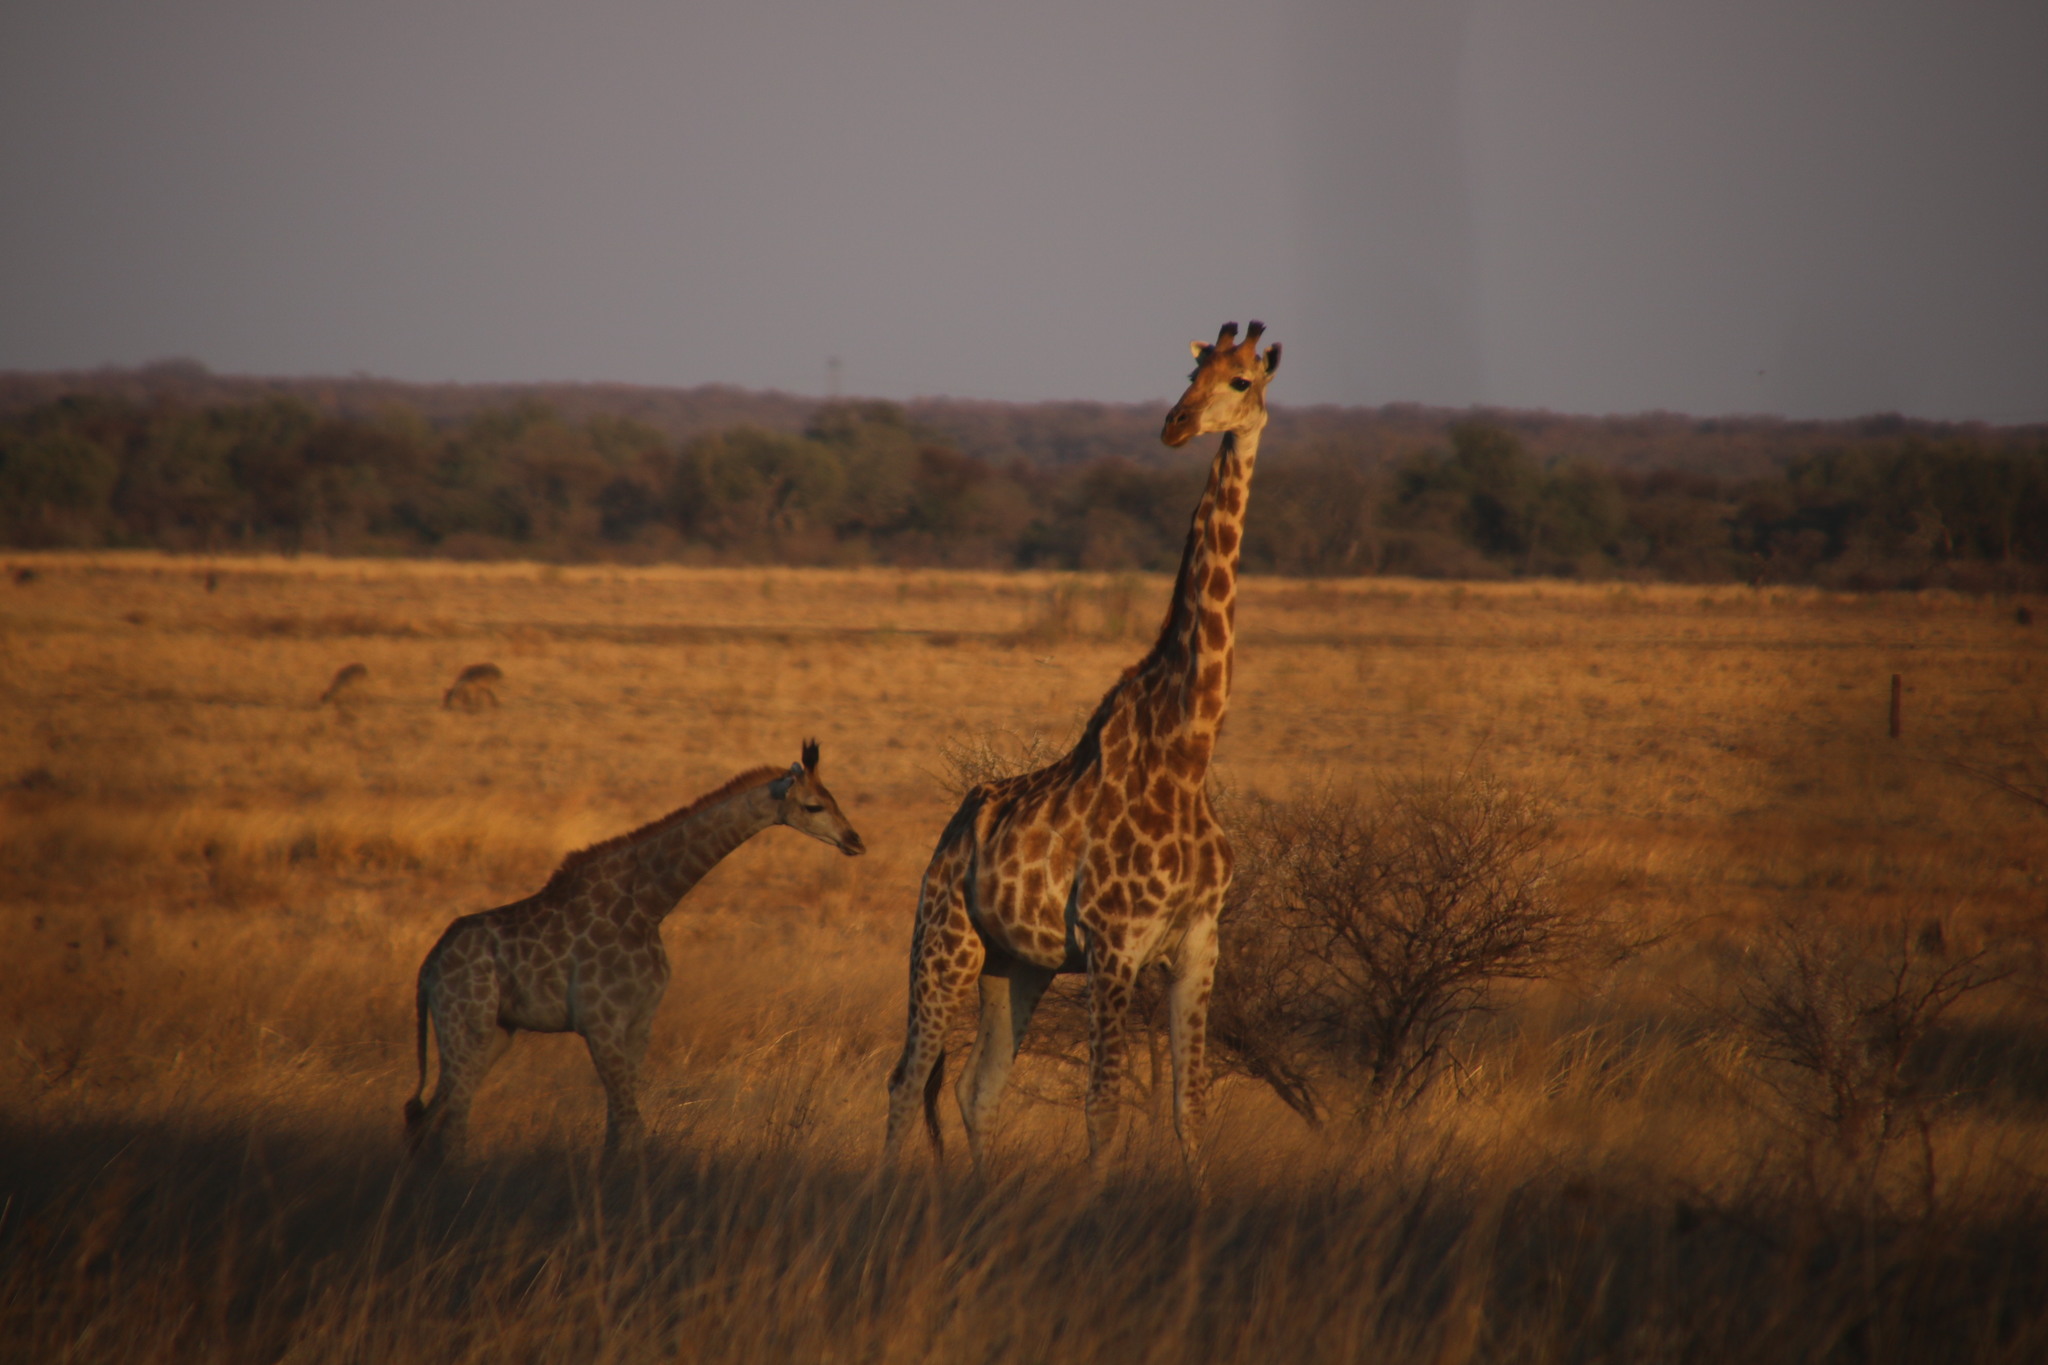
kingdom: Animalia
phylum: Chordata
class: Mammalia
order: Artiodactyla
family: Giraffidae
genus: Giraffa
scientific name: Giraffa giraffa
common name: Southern giraffe
